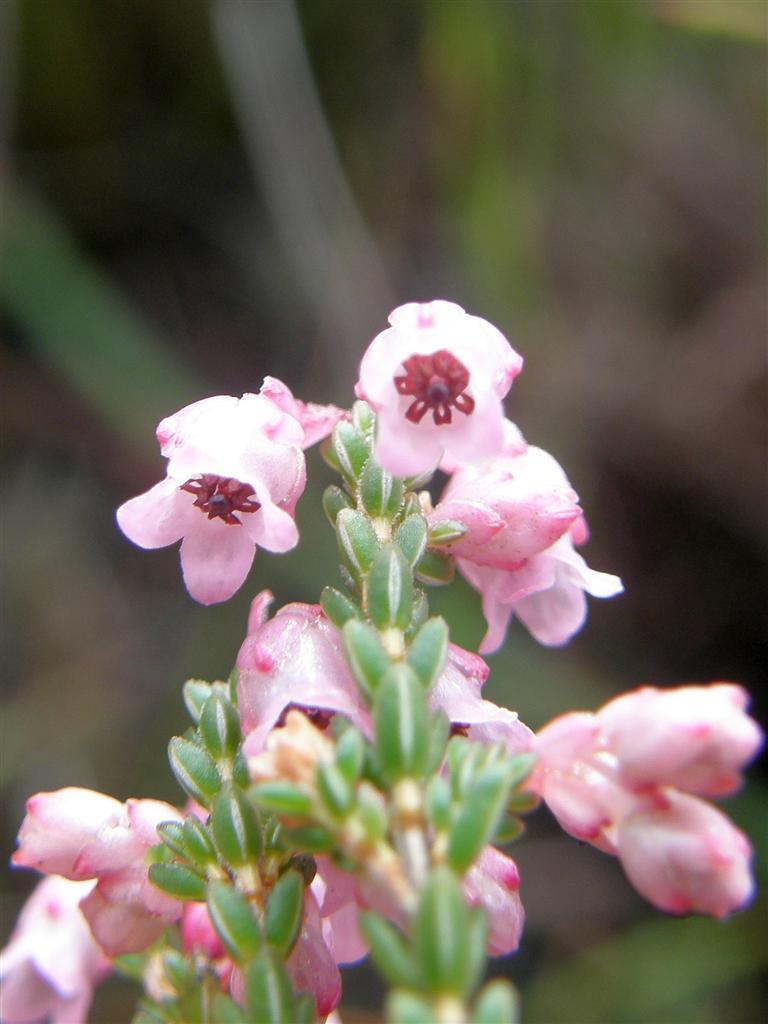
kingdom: Plantae
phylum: Tracheophyta
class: Magnoliopsida
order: Ericales
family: Ericaceae
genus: Erica
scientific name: Erica brevifolia
